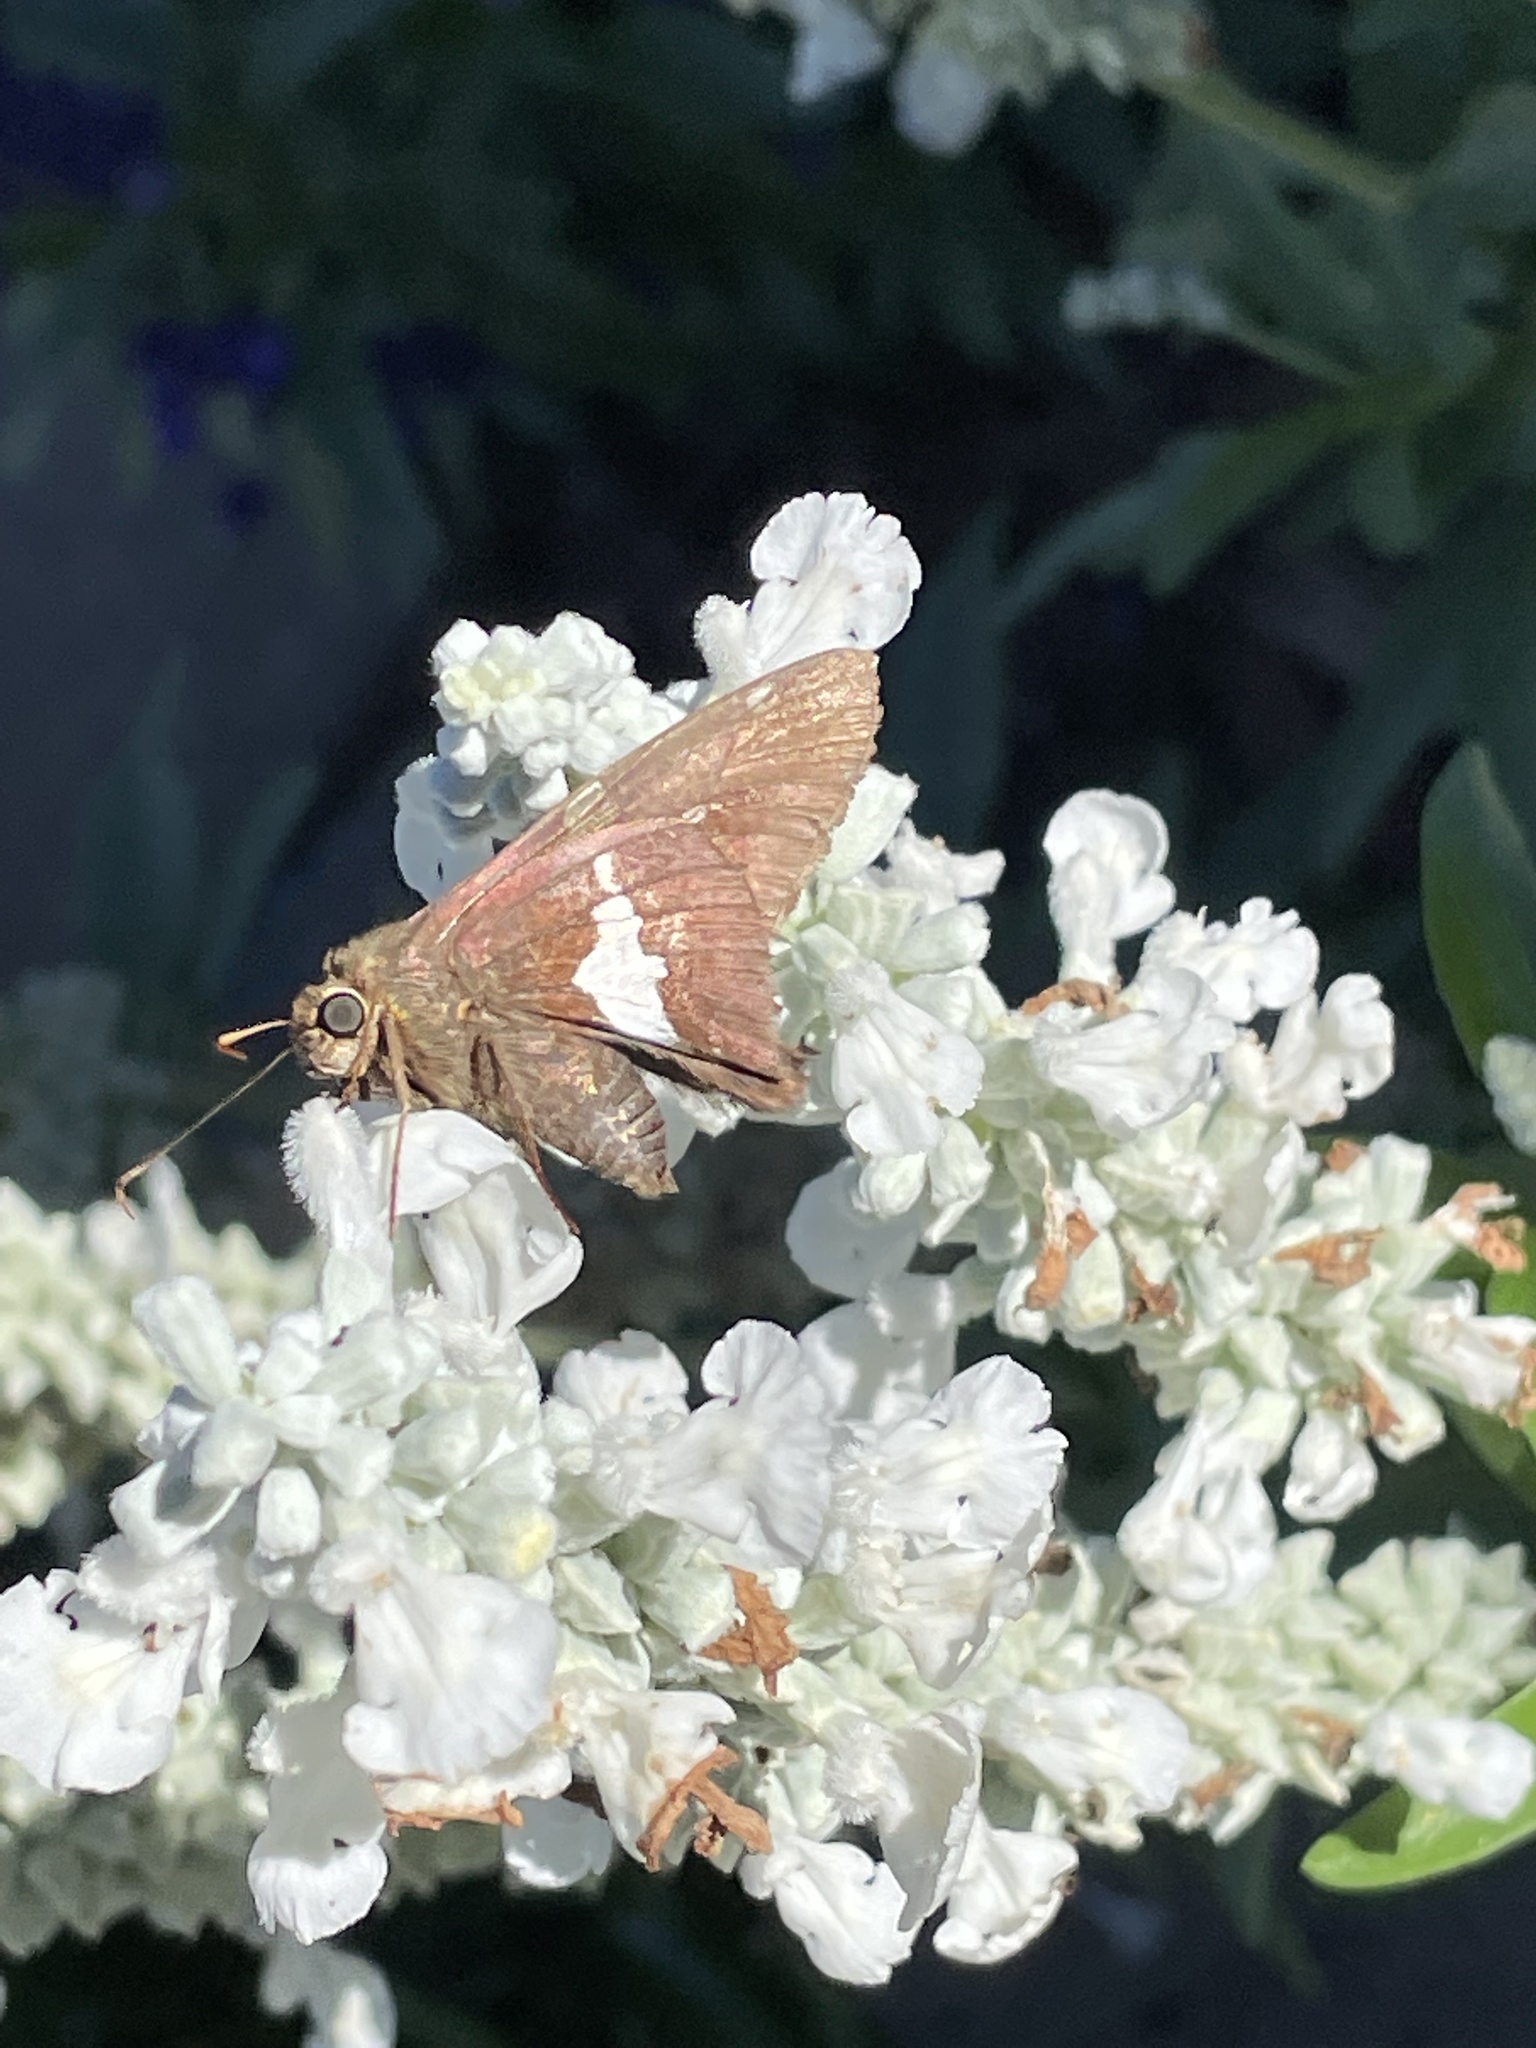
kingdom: Animalia
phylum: Arthropoda
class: Insecta
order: Lepidoptera
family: Hesperiidae
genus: Epargyreus
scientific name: Epargyreus clarus
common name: Silver-spotted skipper
